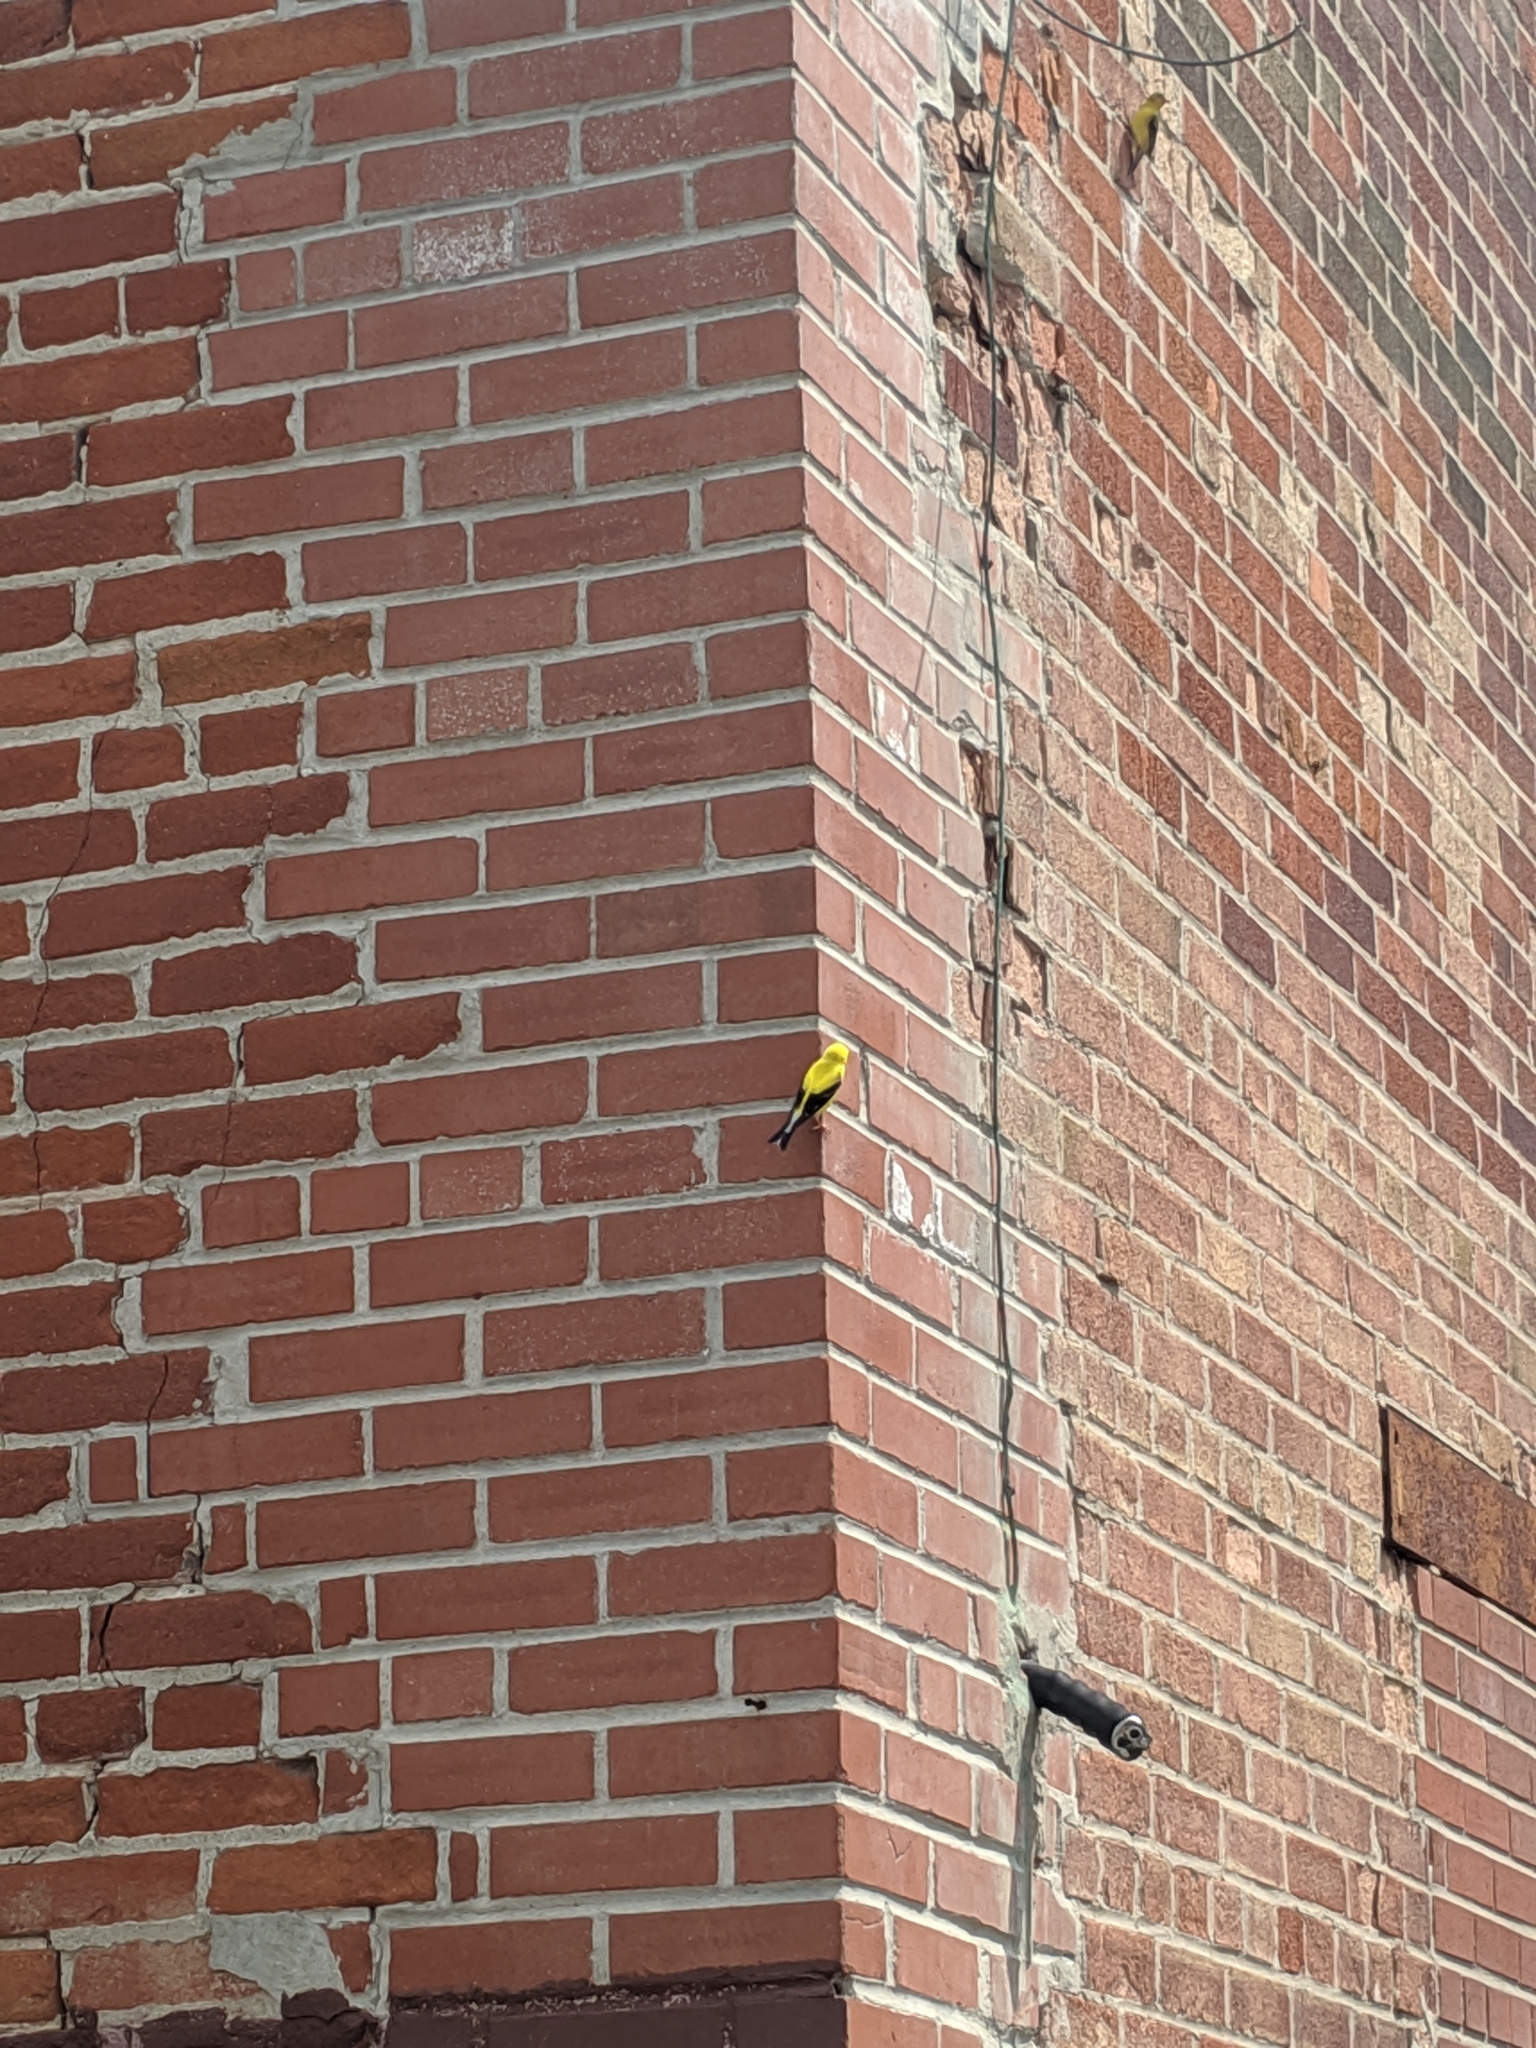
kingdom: Animalia
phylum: Chordata
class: Aves
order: Passeriformes
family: Fringillidae
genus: Spinus
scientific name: Spinus tristis
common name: American goldfinch
